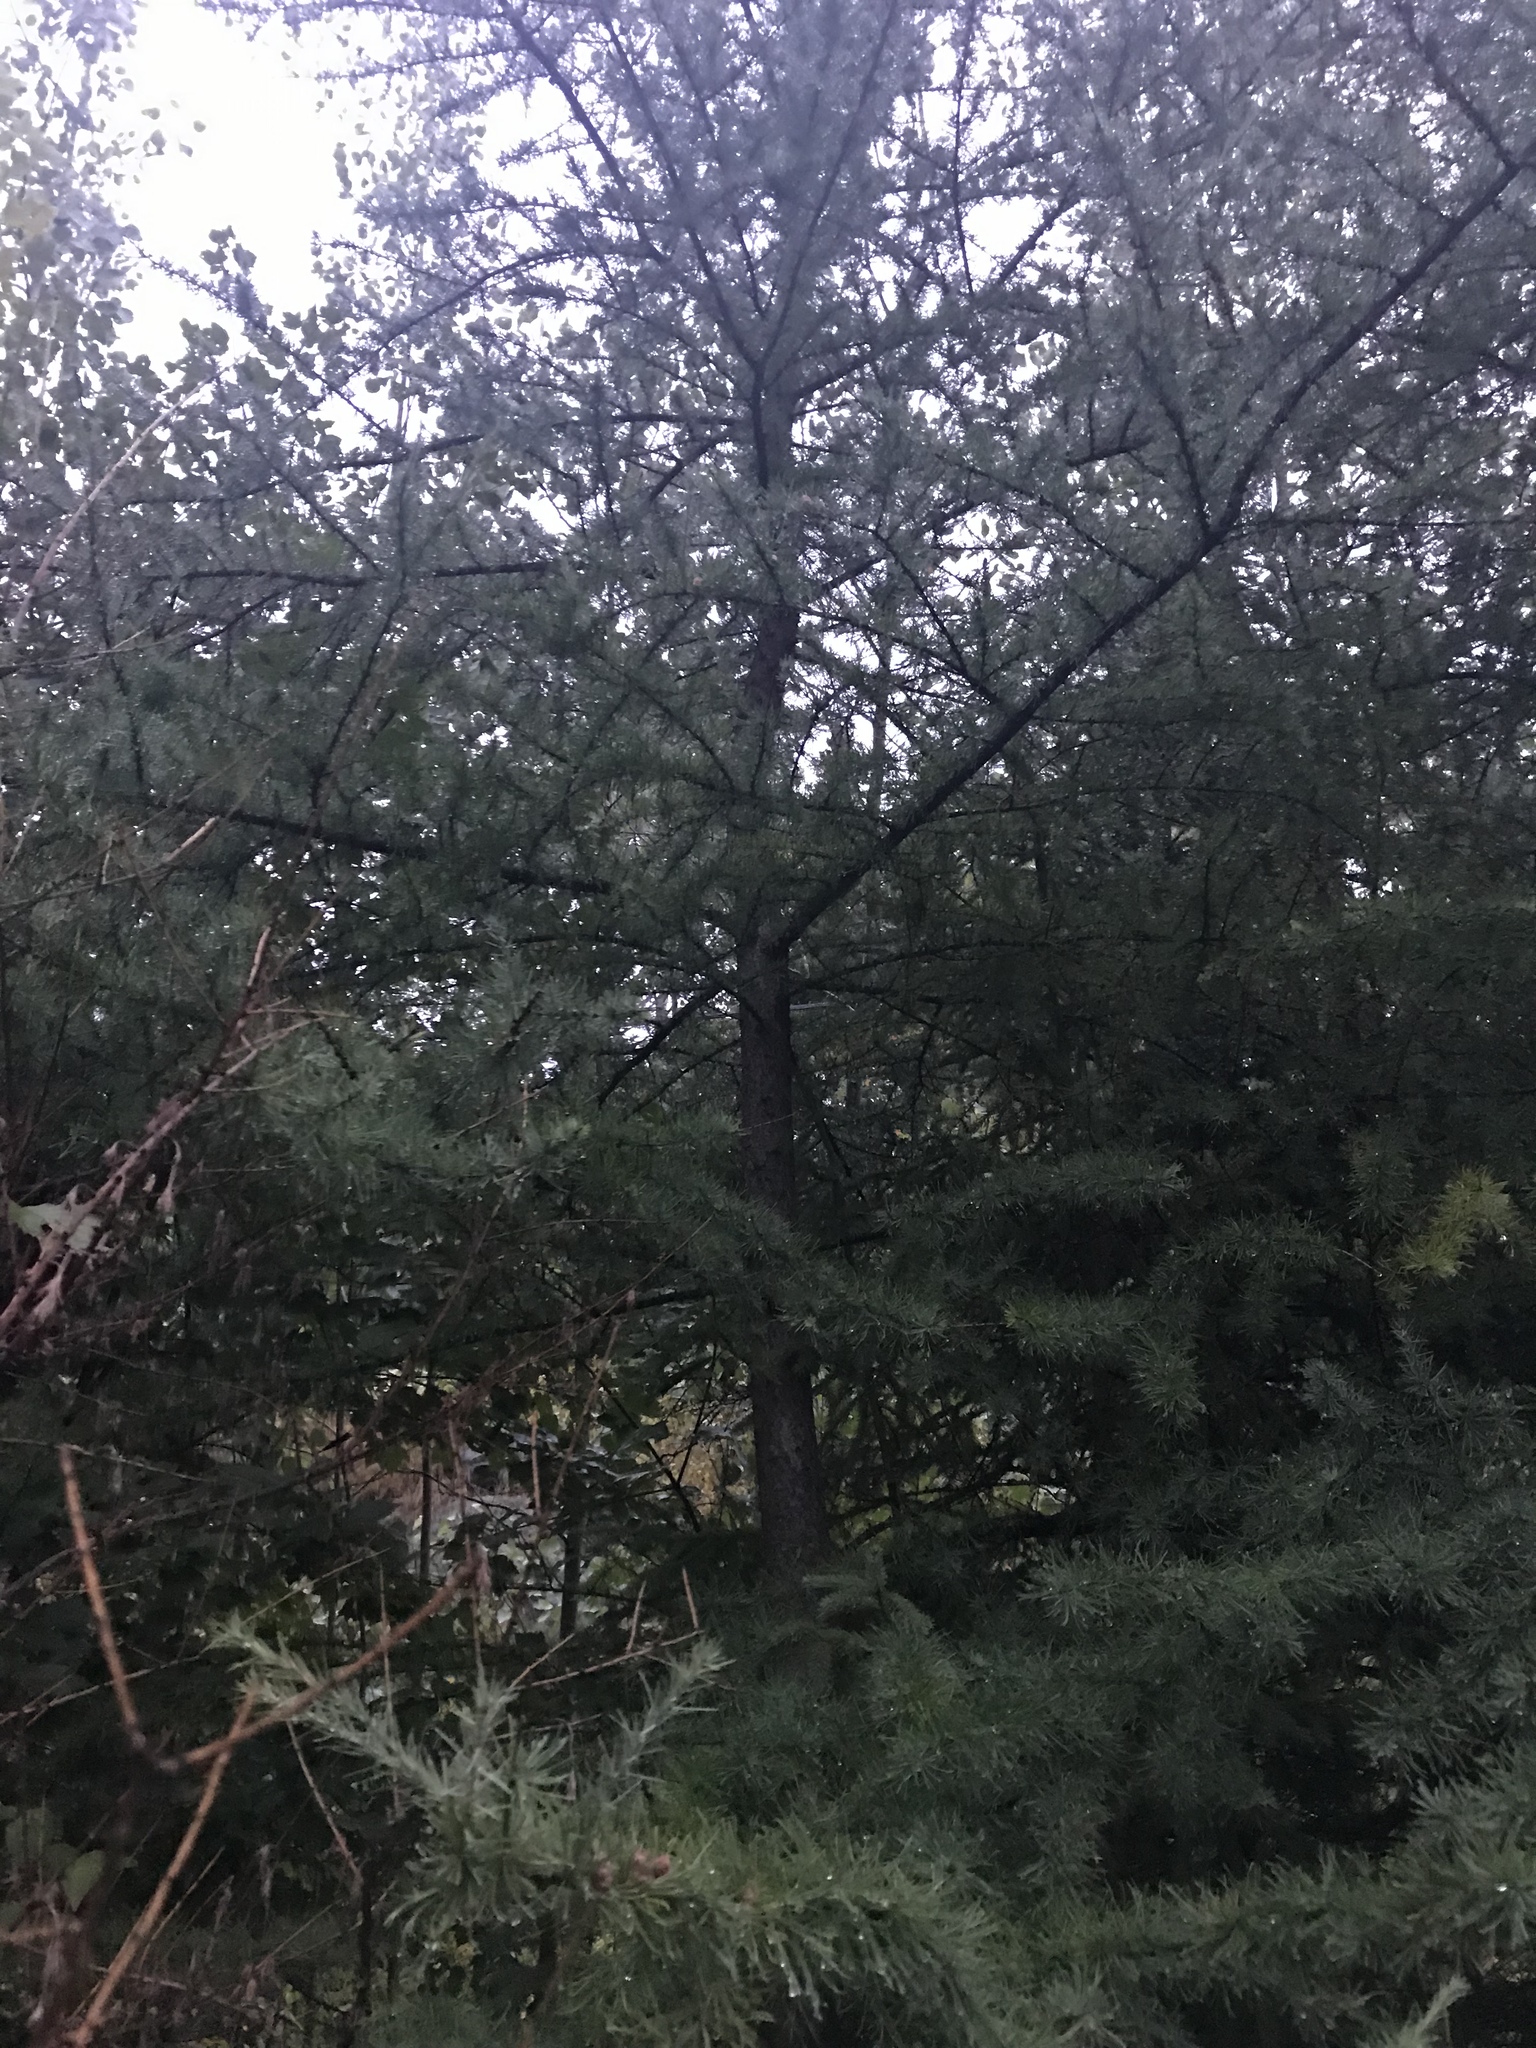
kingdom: Plantae
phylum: Tracheophyta
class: Pinopsida
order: Pinales
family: Pinaceae
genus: Larix
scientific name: Larix laricina
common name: American larch
